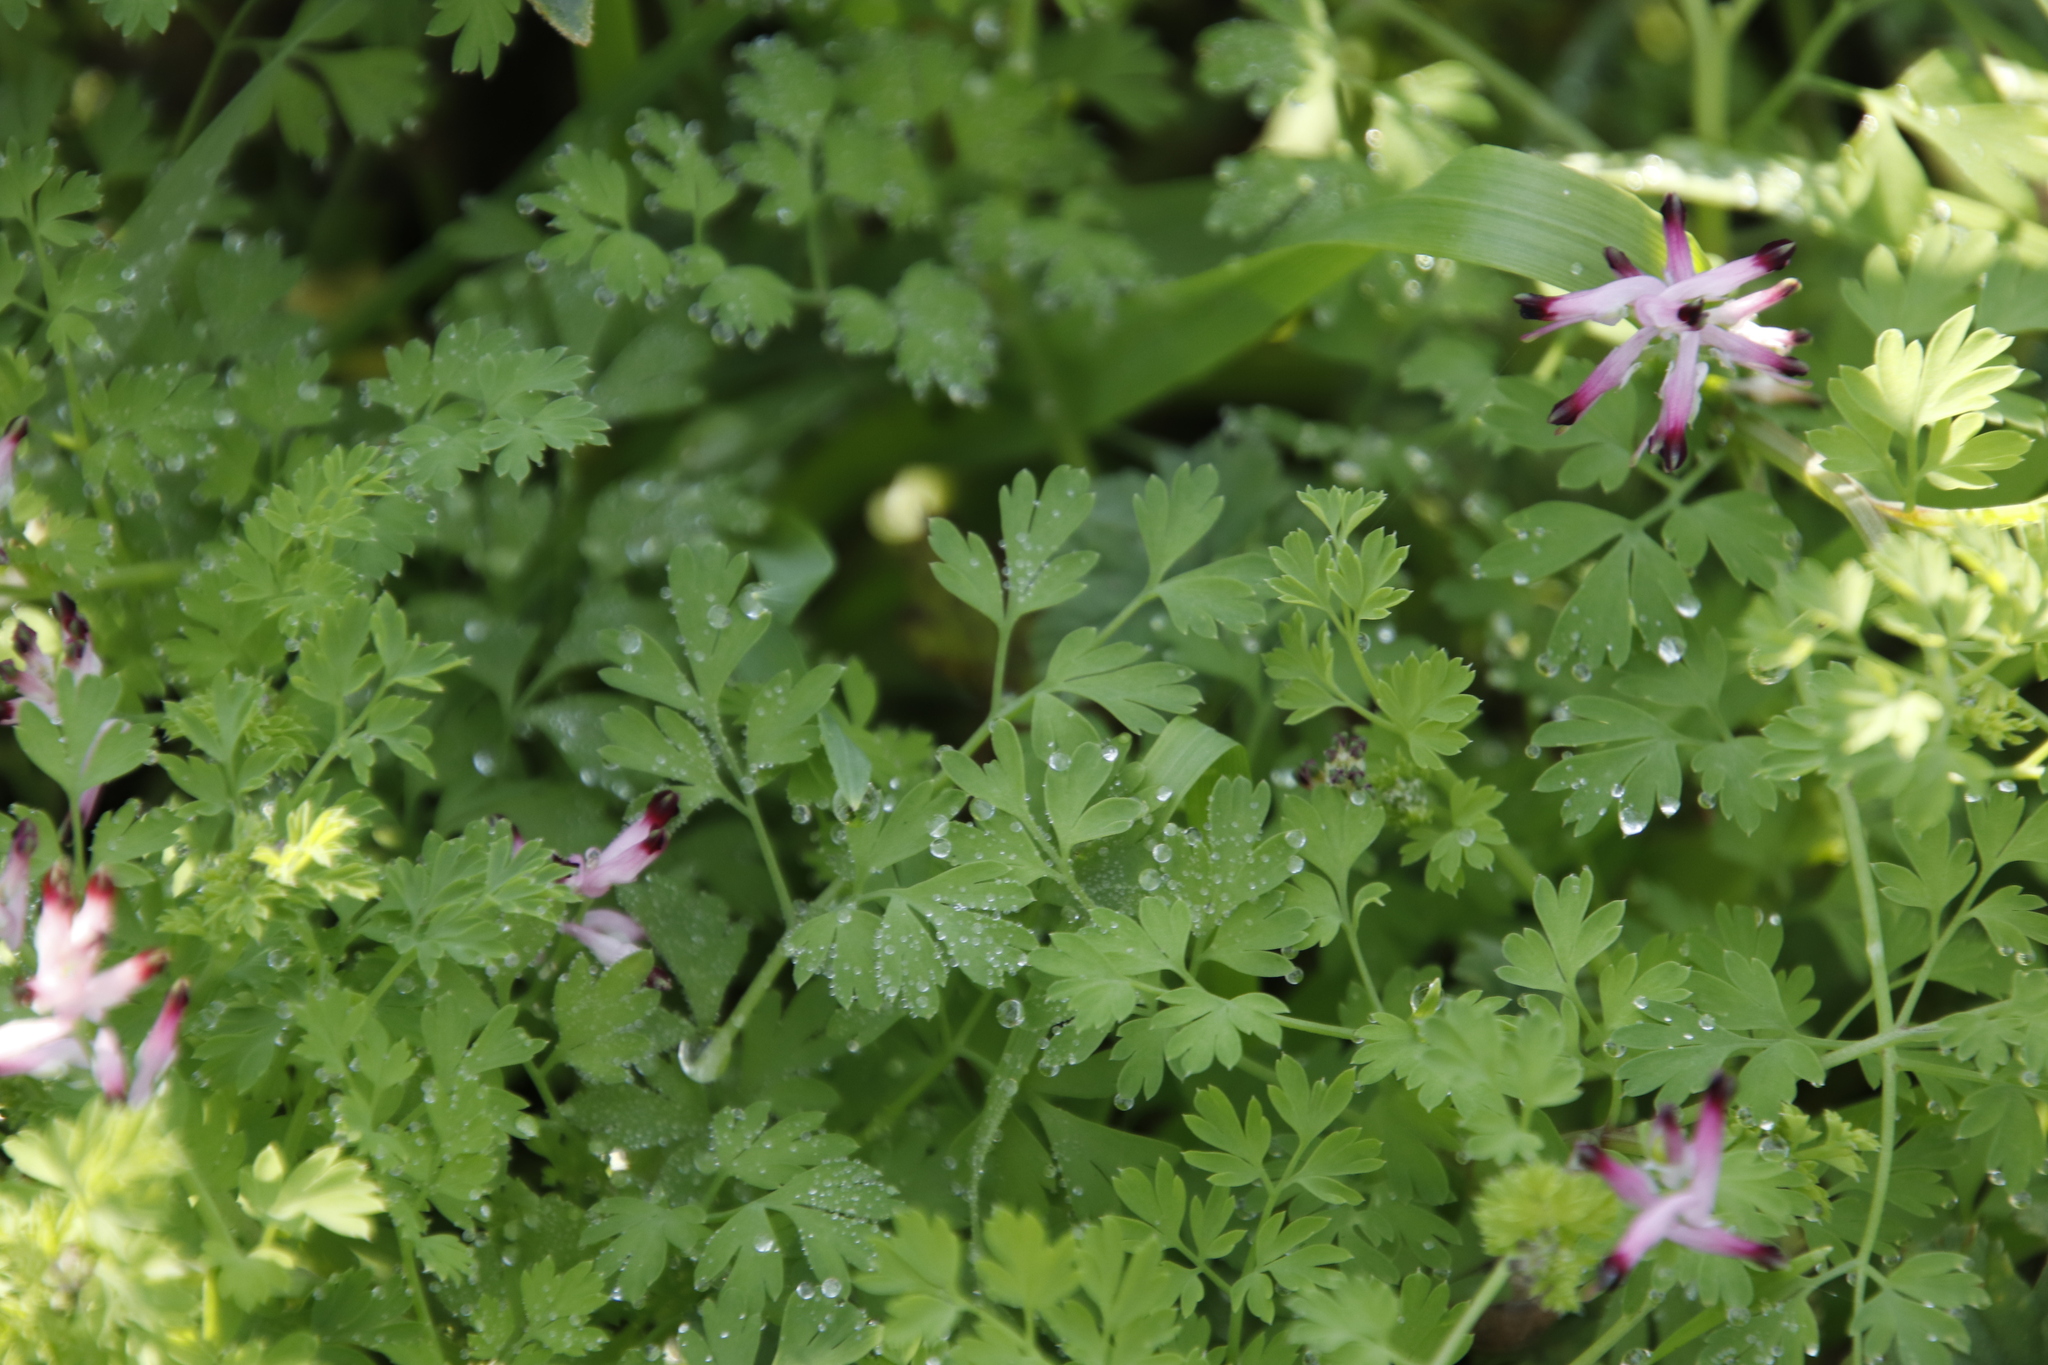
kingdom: Plantae
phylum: Tracheophyta
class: Magnoliopsida
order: Ranunculales
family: Papaveraceae
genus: Fumaria
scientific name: Fumaria muralis
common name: Common ramping-fumitory
